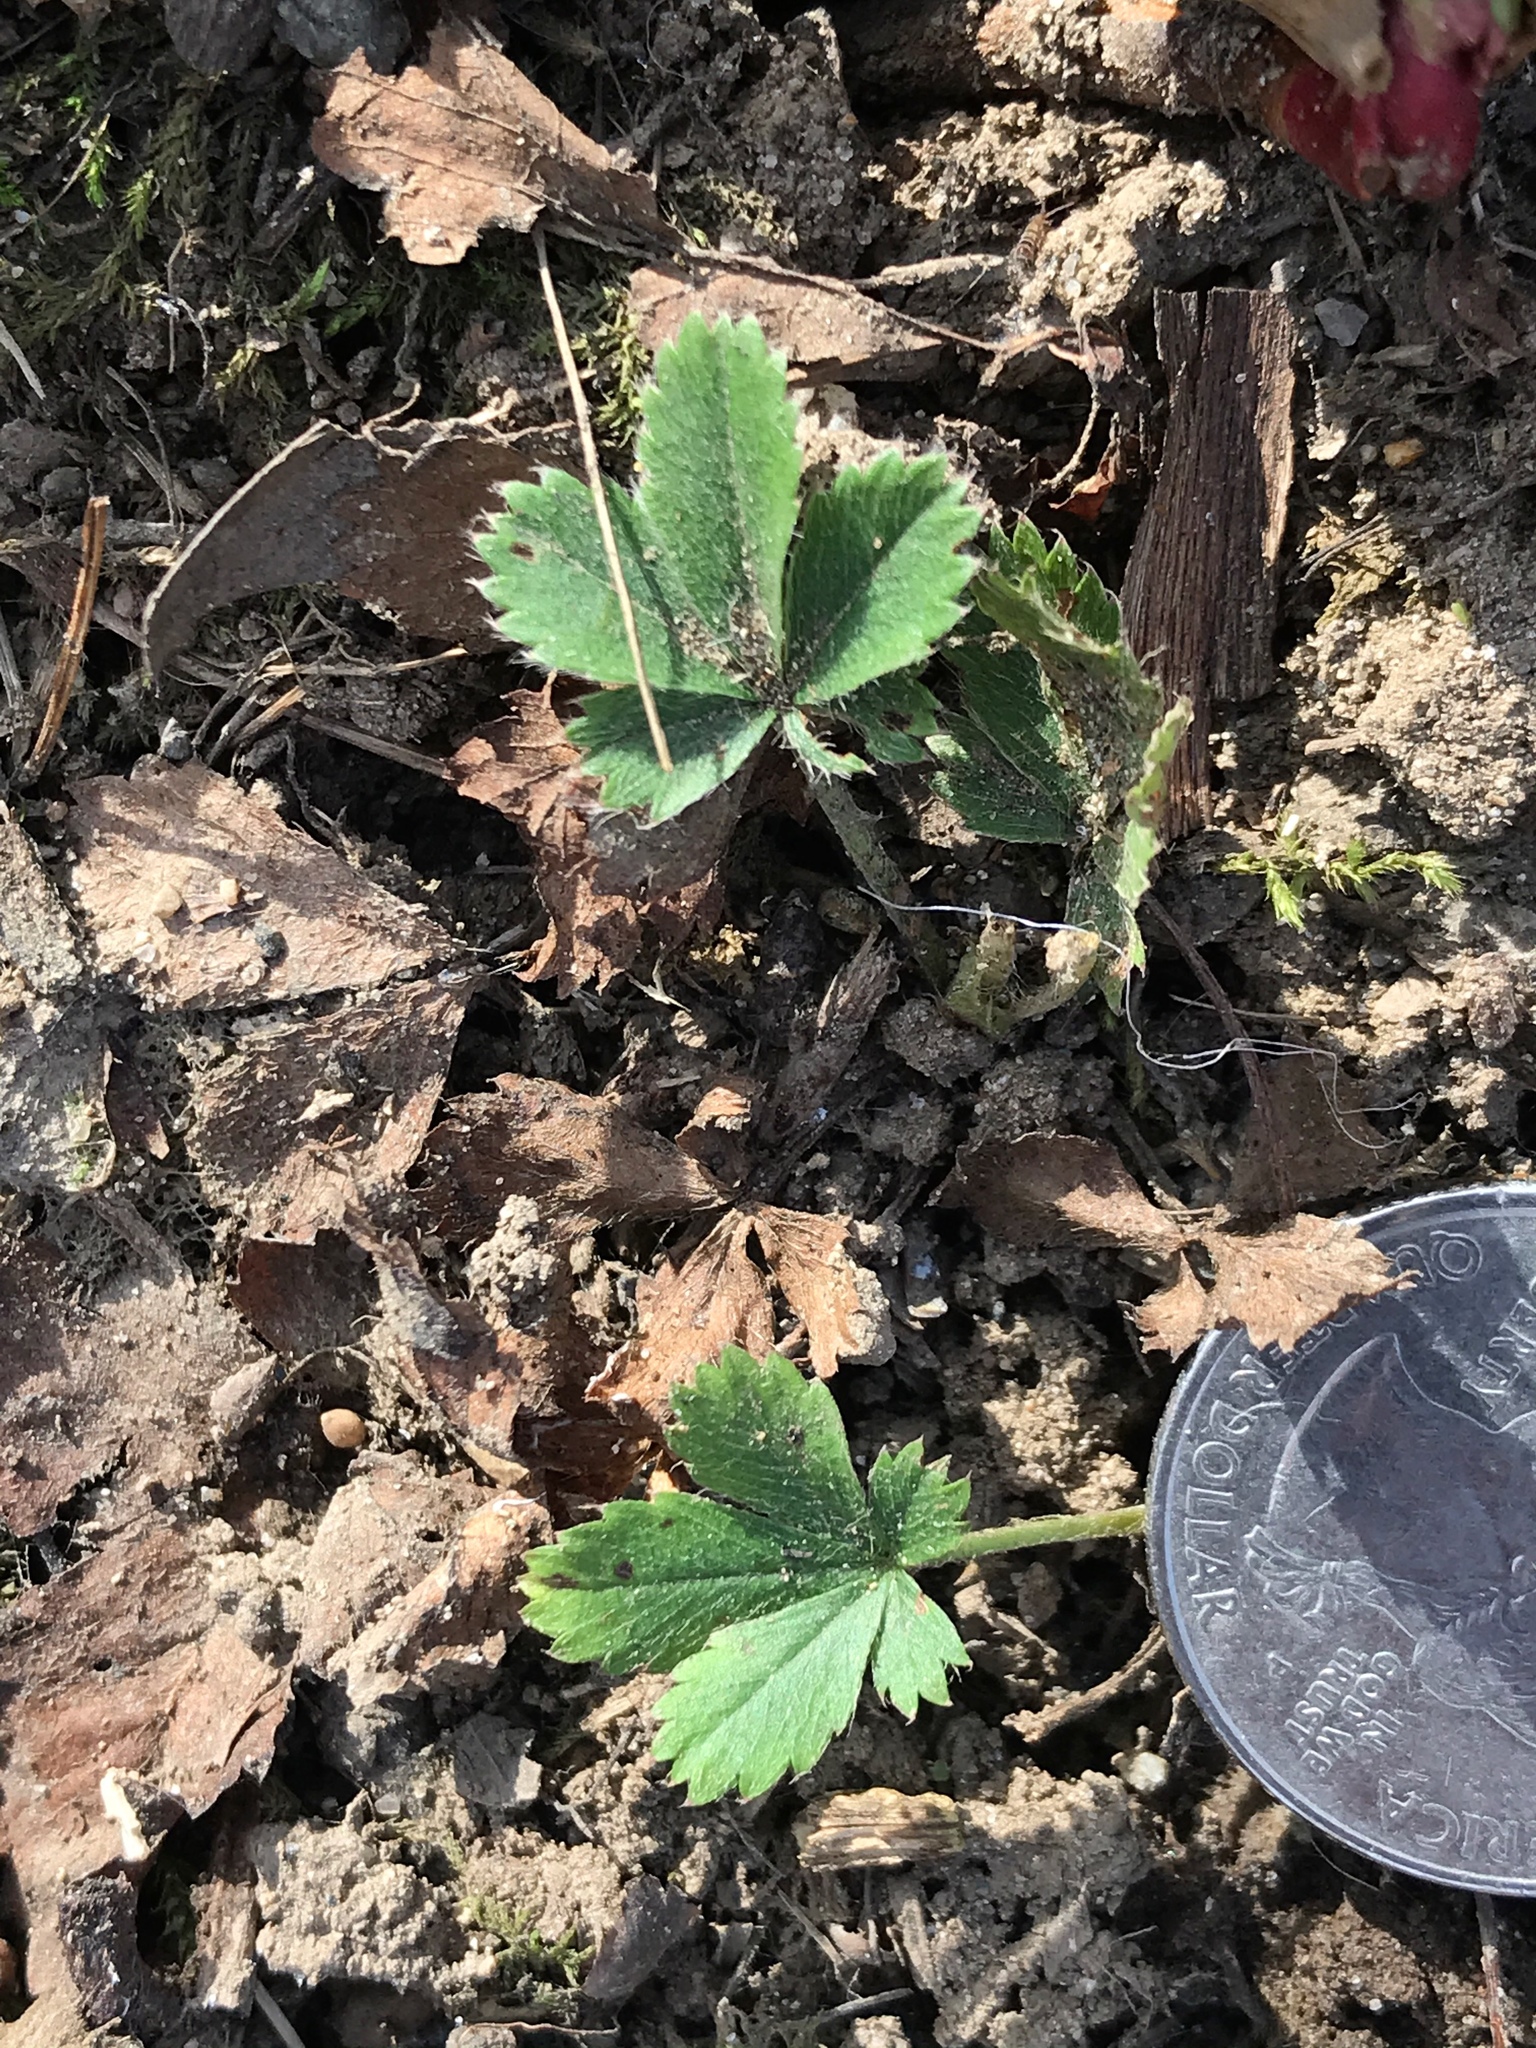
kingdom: Plantae
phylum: Tracheophyta
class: Magnoliopsida
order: Rosales
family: Rosaceae
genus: Potentilla
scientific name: Potentilla canadensis
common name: Canada cinquefoil
